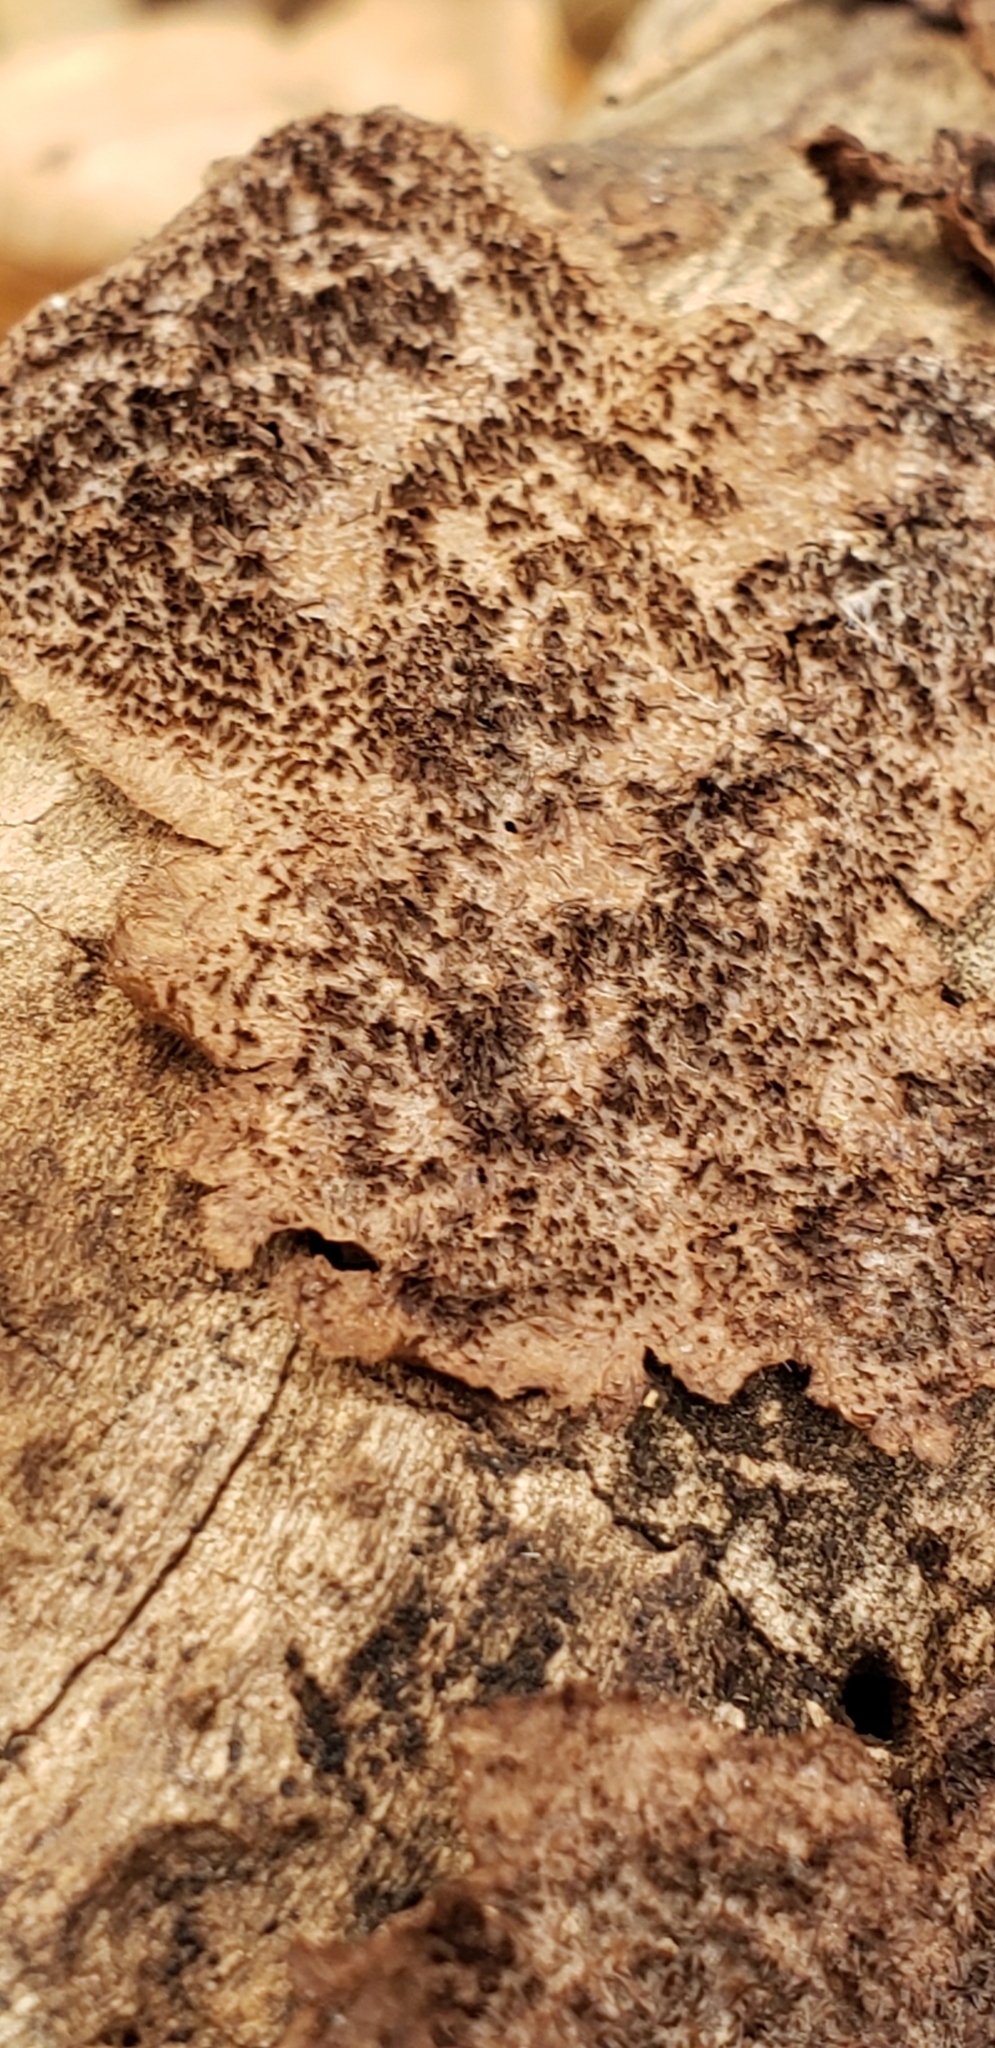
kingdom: Fungi
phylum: Basidiomycota
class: Agaricomycetes
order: Hymenochaetales
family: Hymenochaetaceae
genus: Hydnoporia
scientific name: Hydnoporia olivacea
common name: Brown-toothed crust fungus
